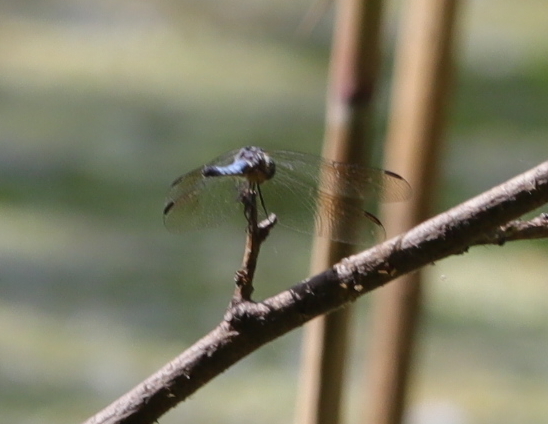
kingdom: Animalia
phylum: Arthropoda
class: Insecta
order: Odonata
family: Libellulidae
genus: Pachydiplax
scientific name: Pachydiplax longipennis
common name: Blue dasher
